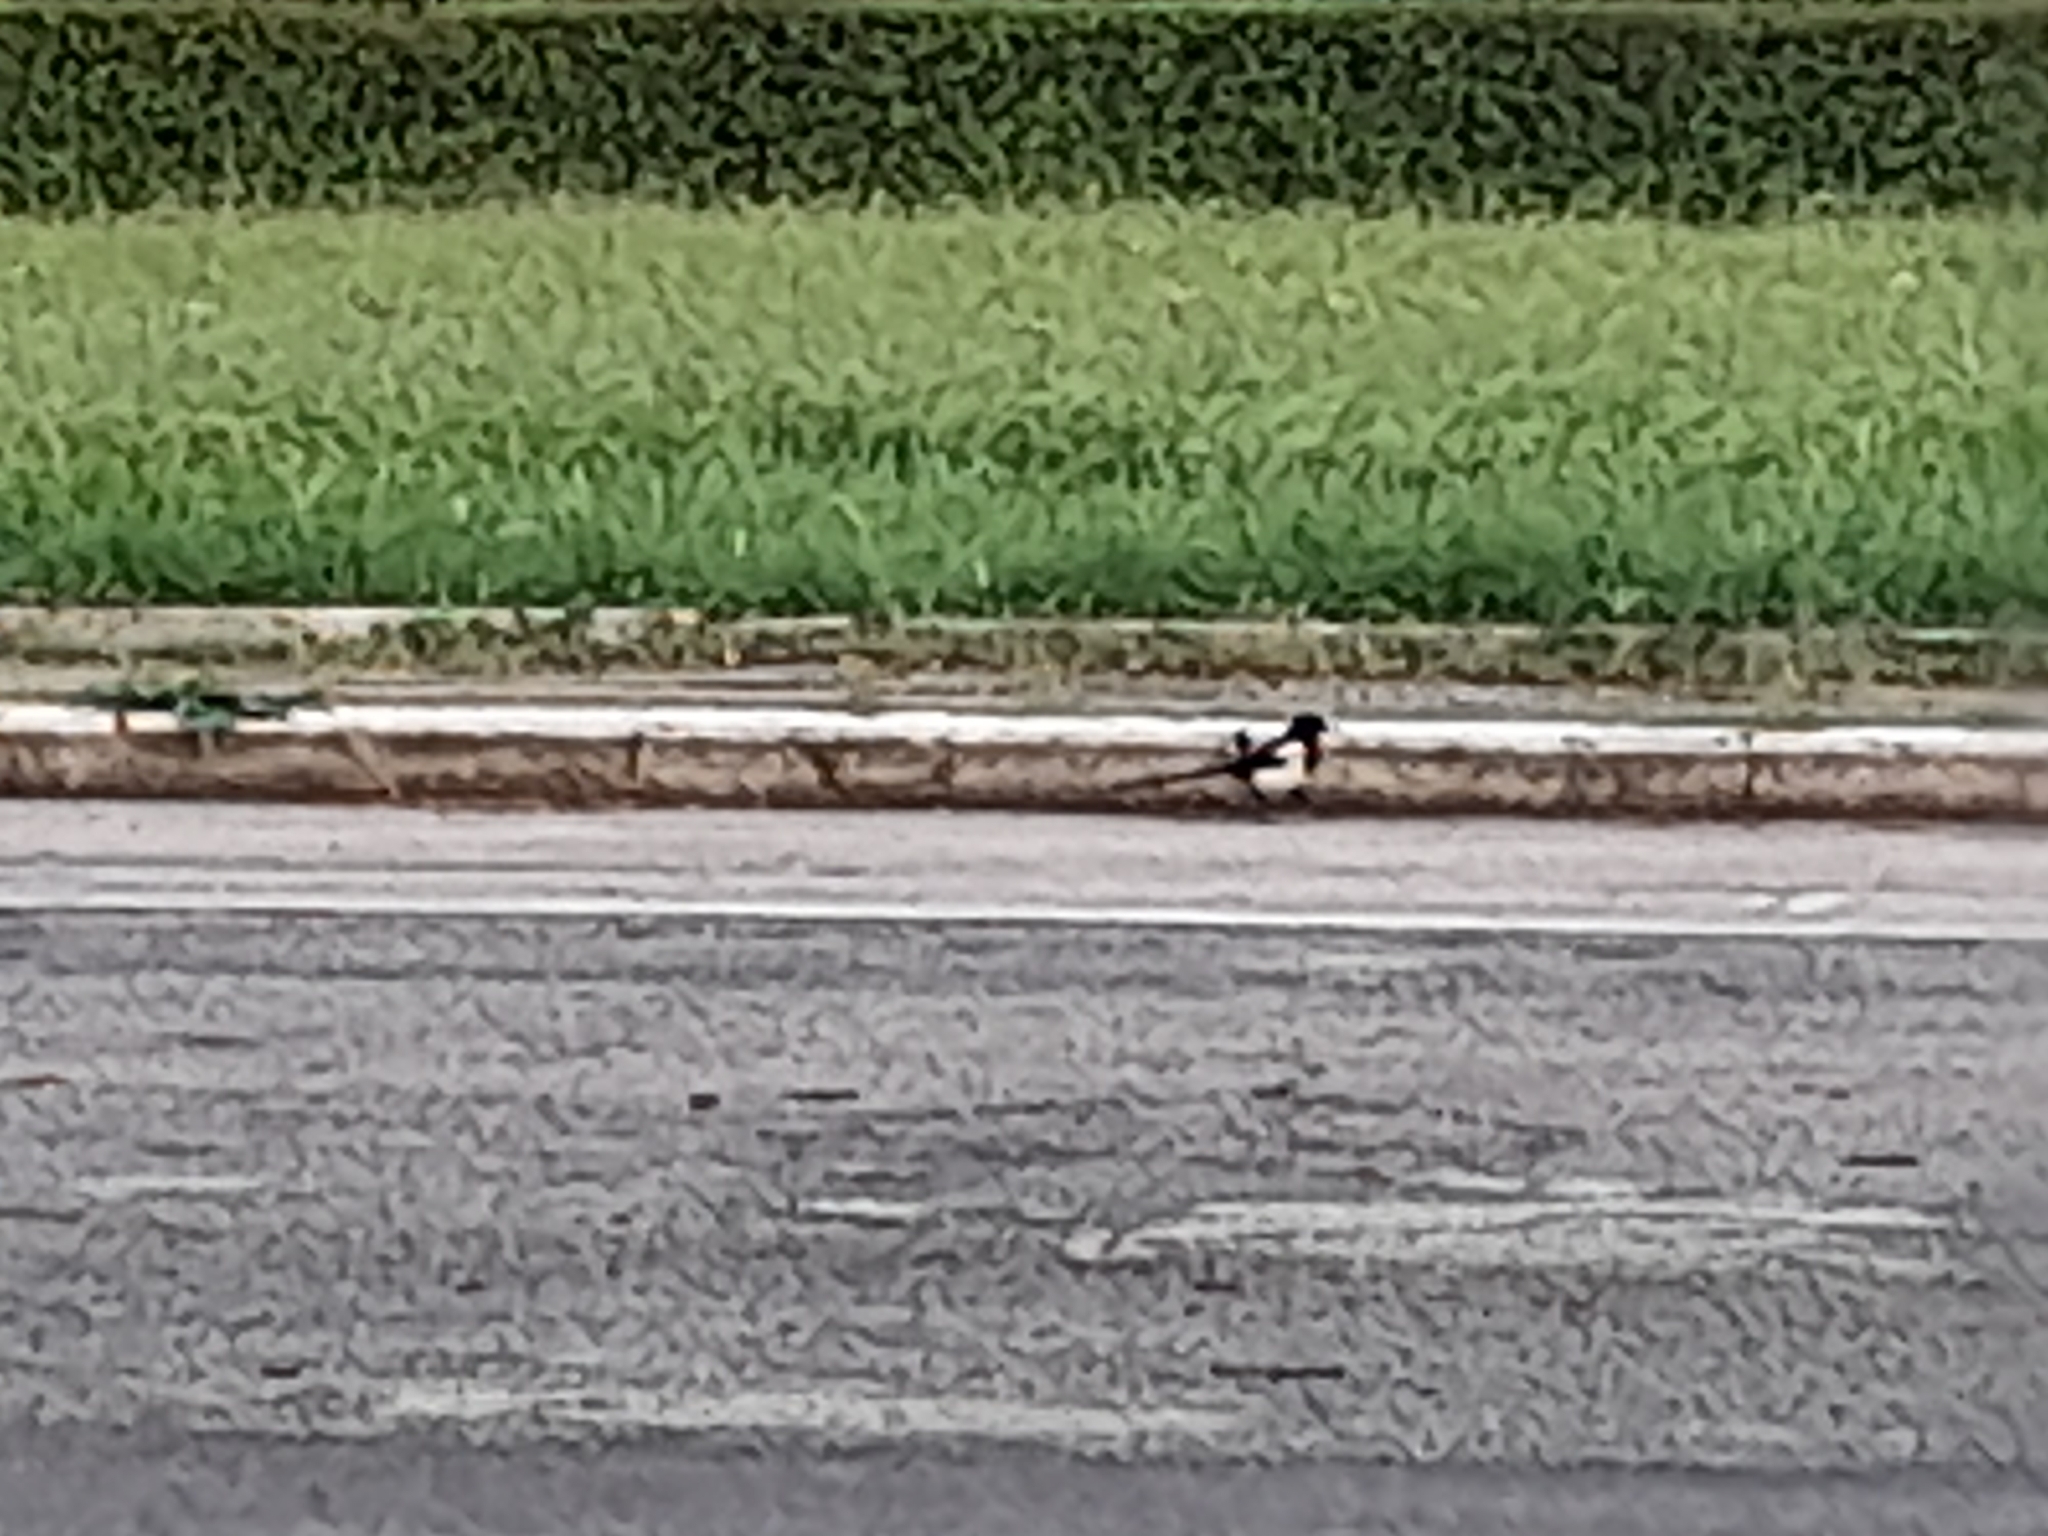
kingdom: Animalia
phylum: Chordata
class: Aves
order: Passeriformes
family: Corvidae
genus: Pica
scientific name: Pica pica
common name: Eurasian magpie
